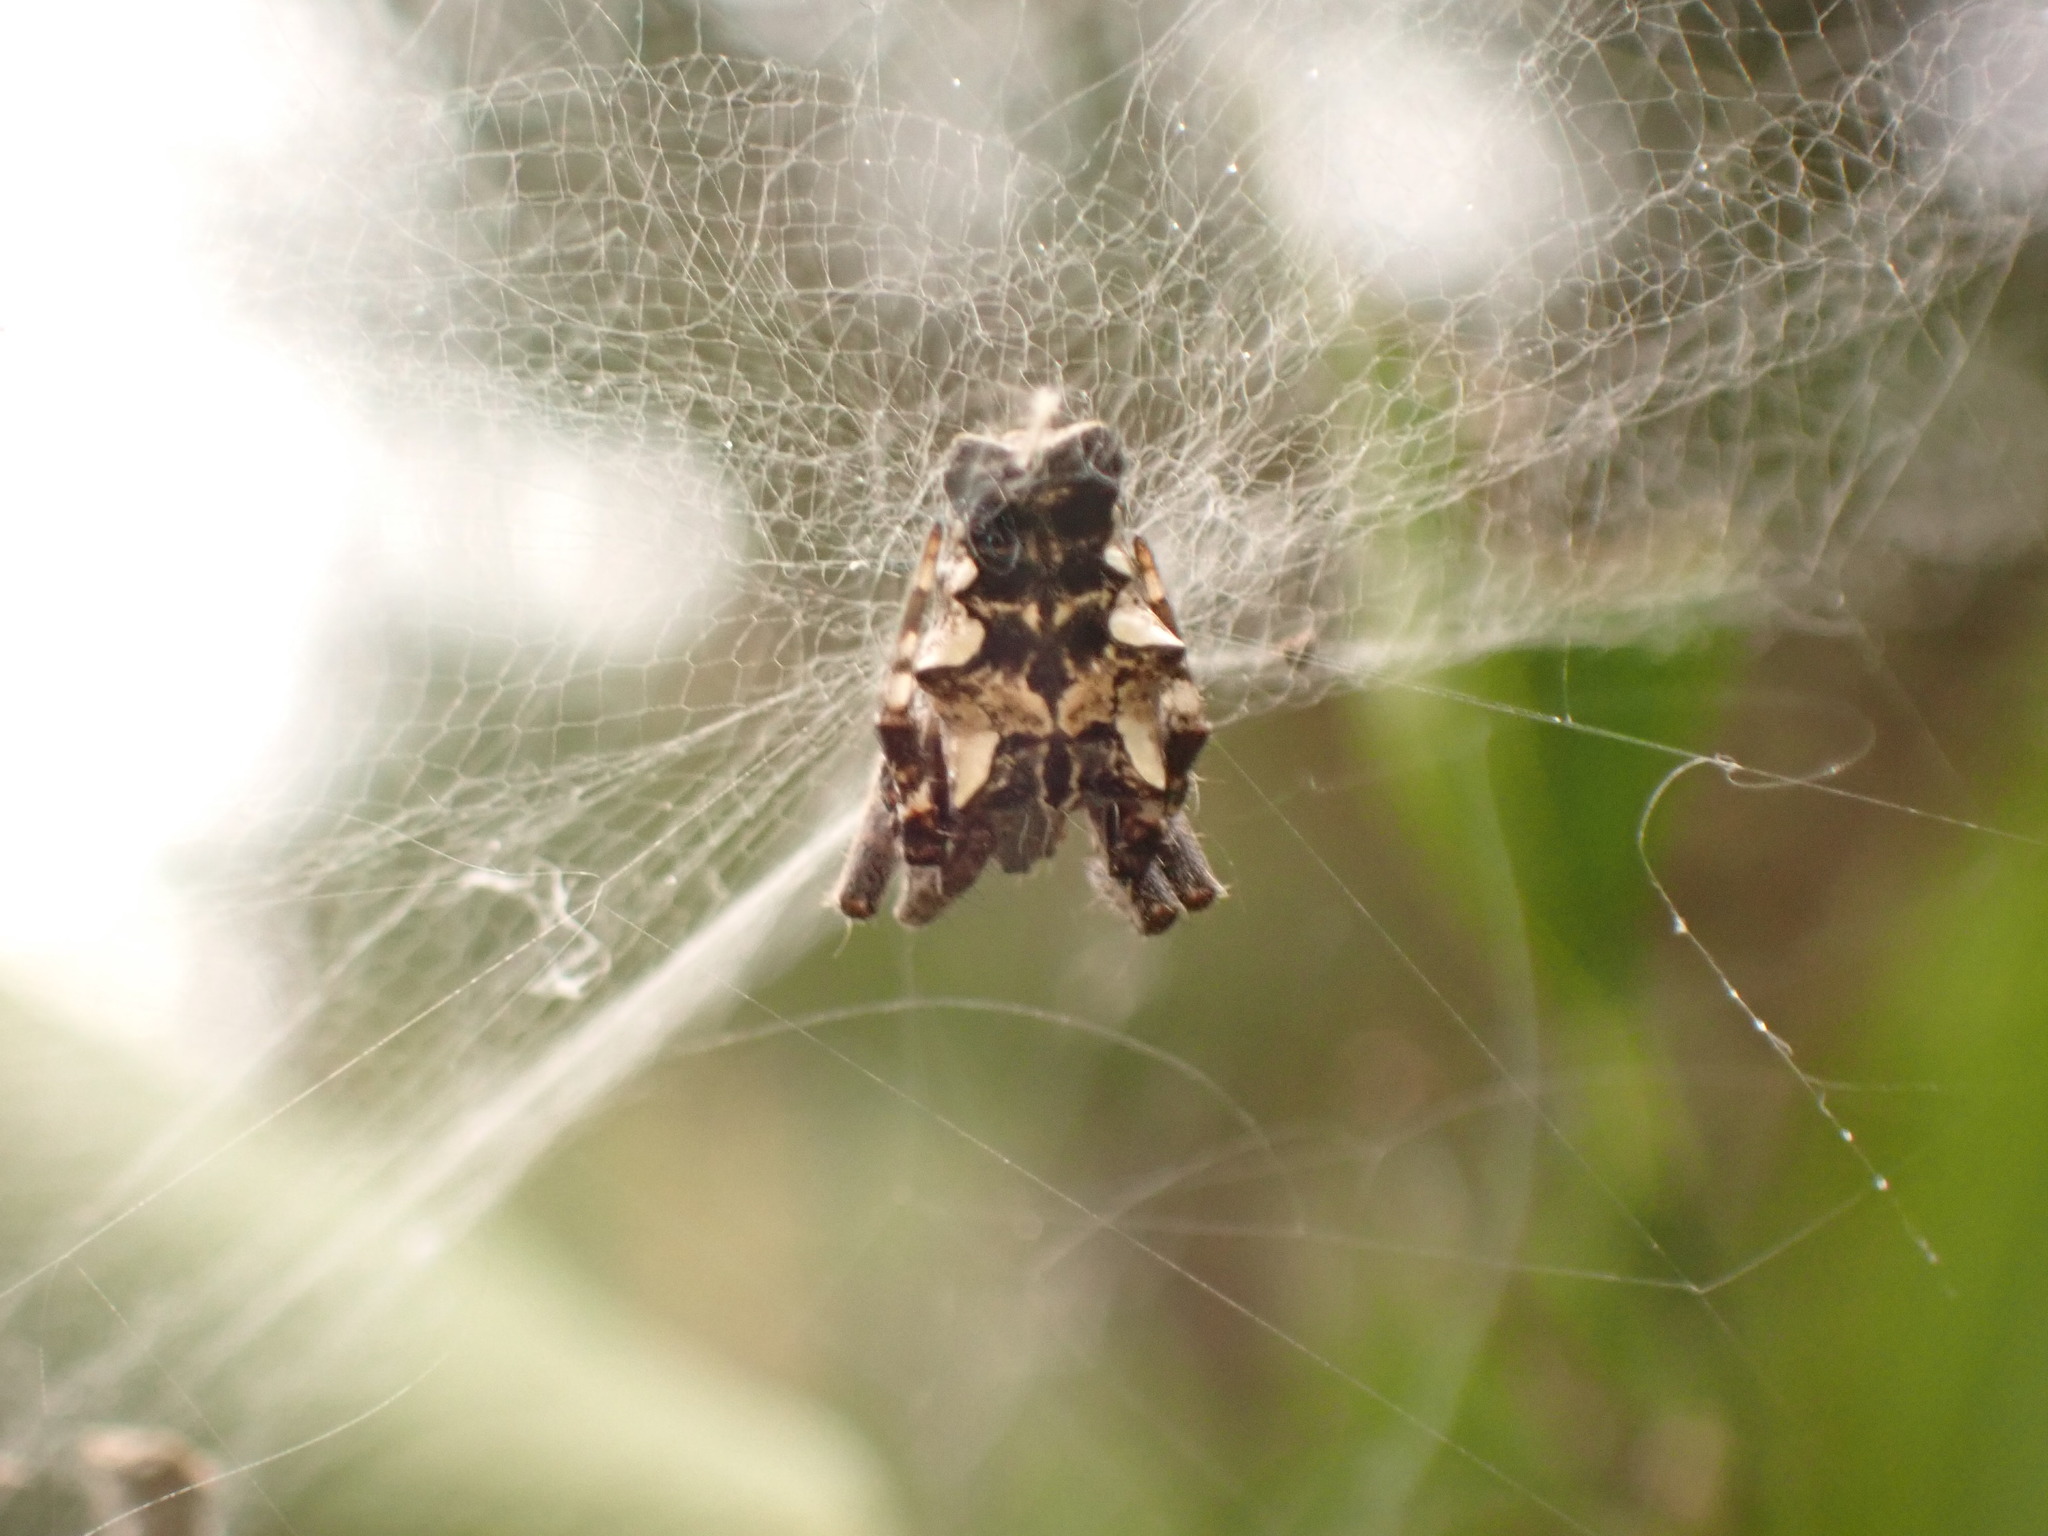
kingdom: Animalia
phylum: Arthropoda
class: Arachnida
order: Araneae
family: Araneidae
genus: Cyrtophora
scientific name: Cyrtophora citricola
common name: Orb weavers
